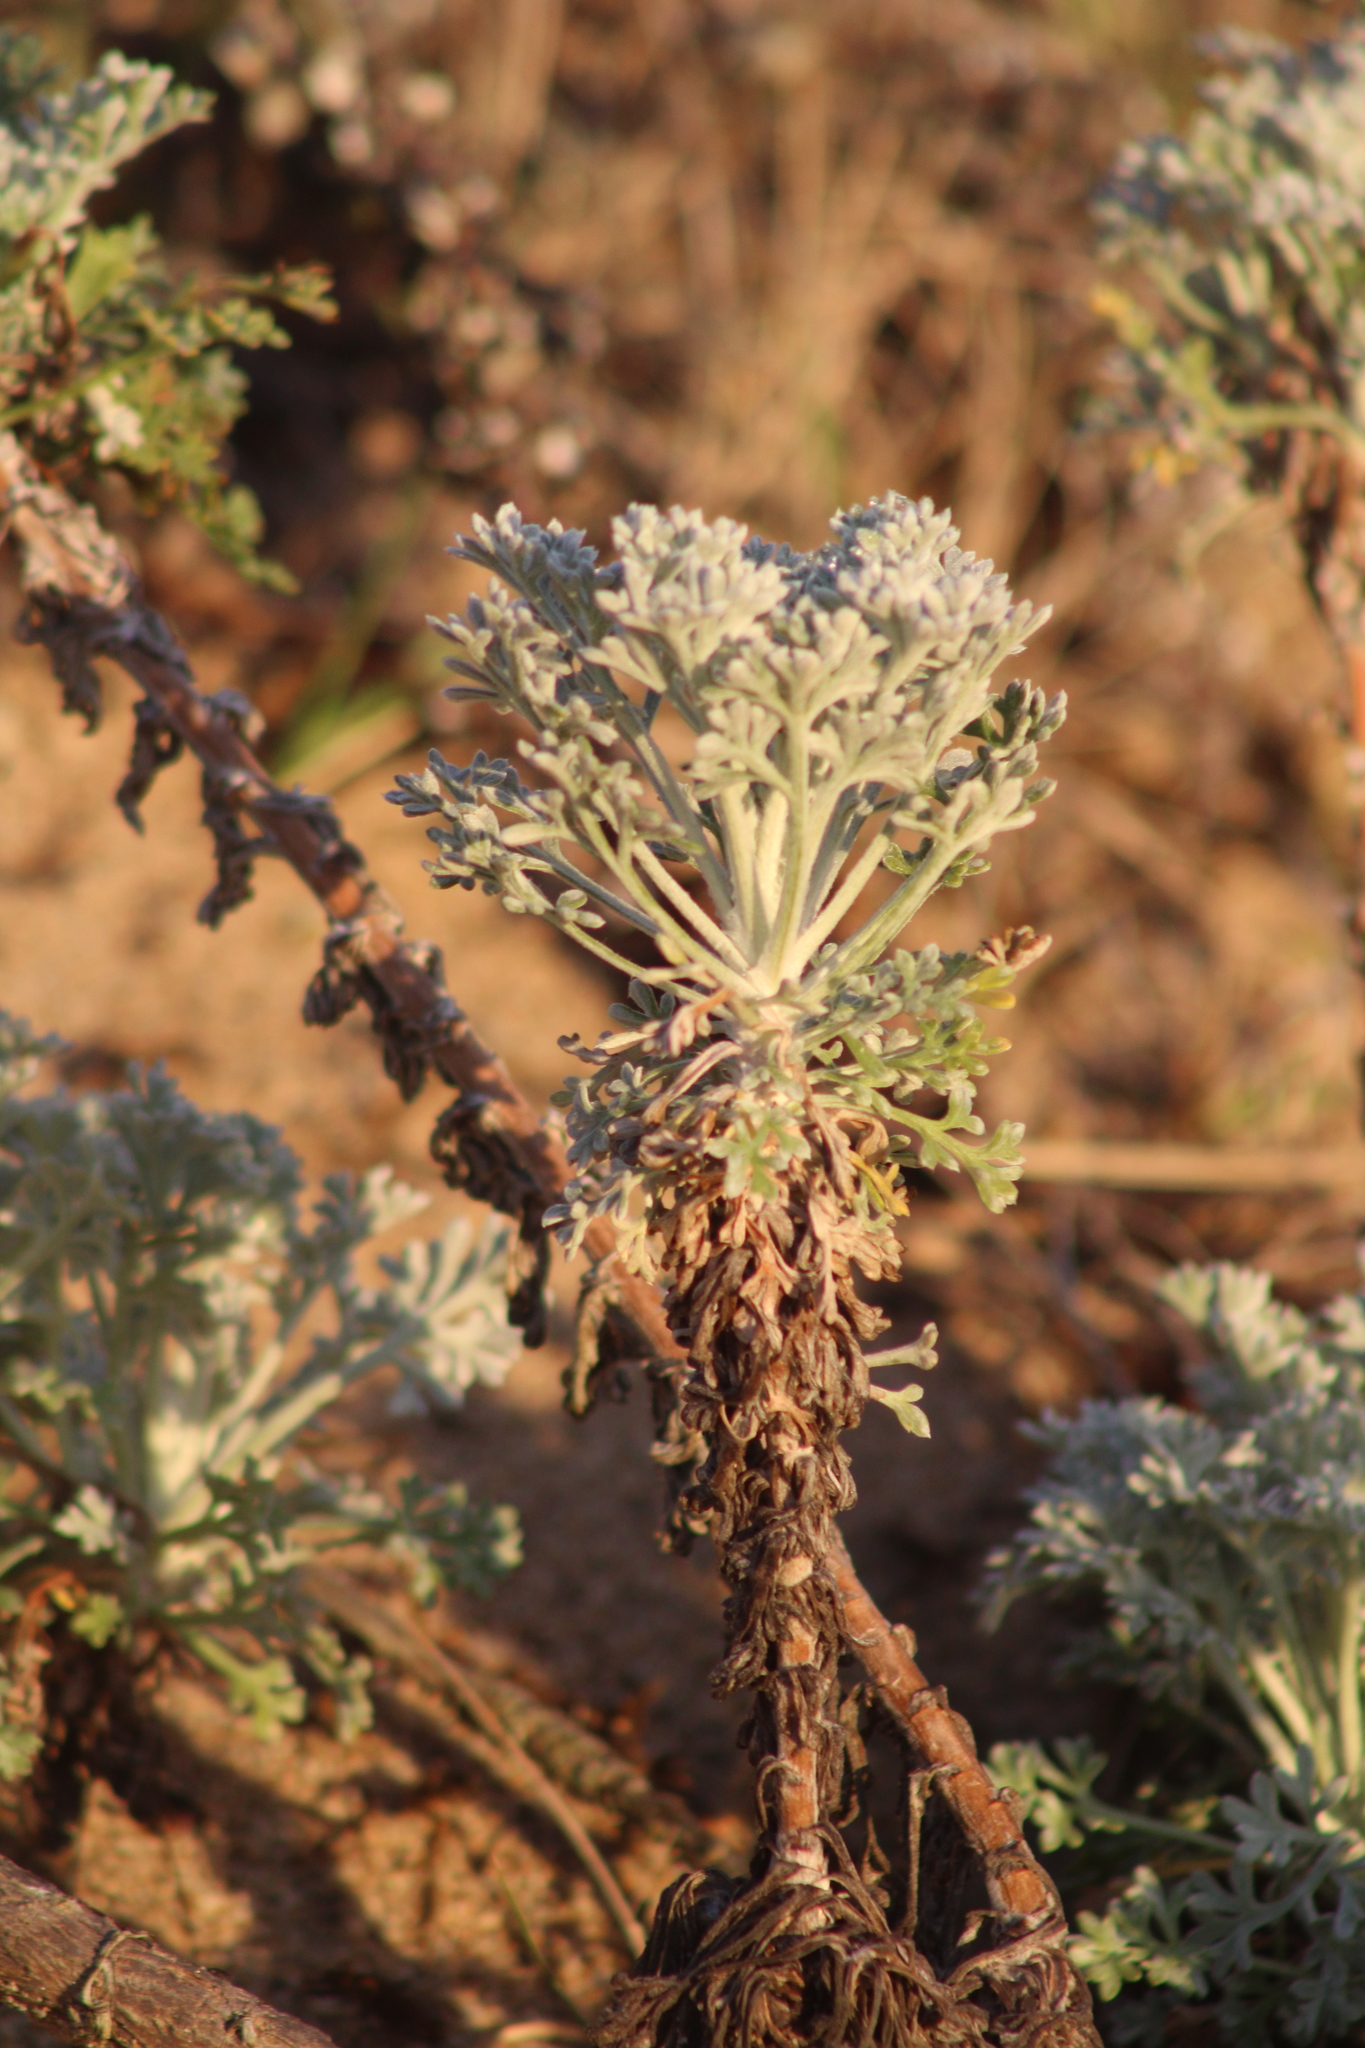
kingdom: Plantae
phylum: Tracheophyta
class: Magnoliopsida
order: Asterales
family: Asteraceae
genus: Artemisia
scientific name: Artemisia pycnocephala
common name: Coastal sagewort
